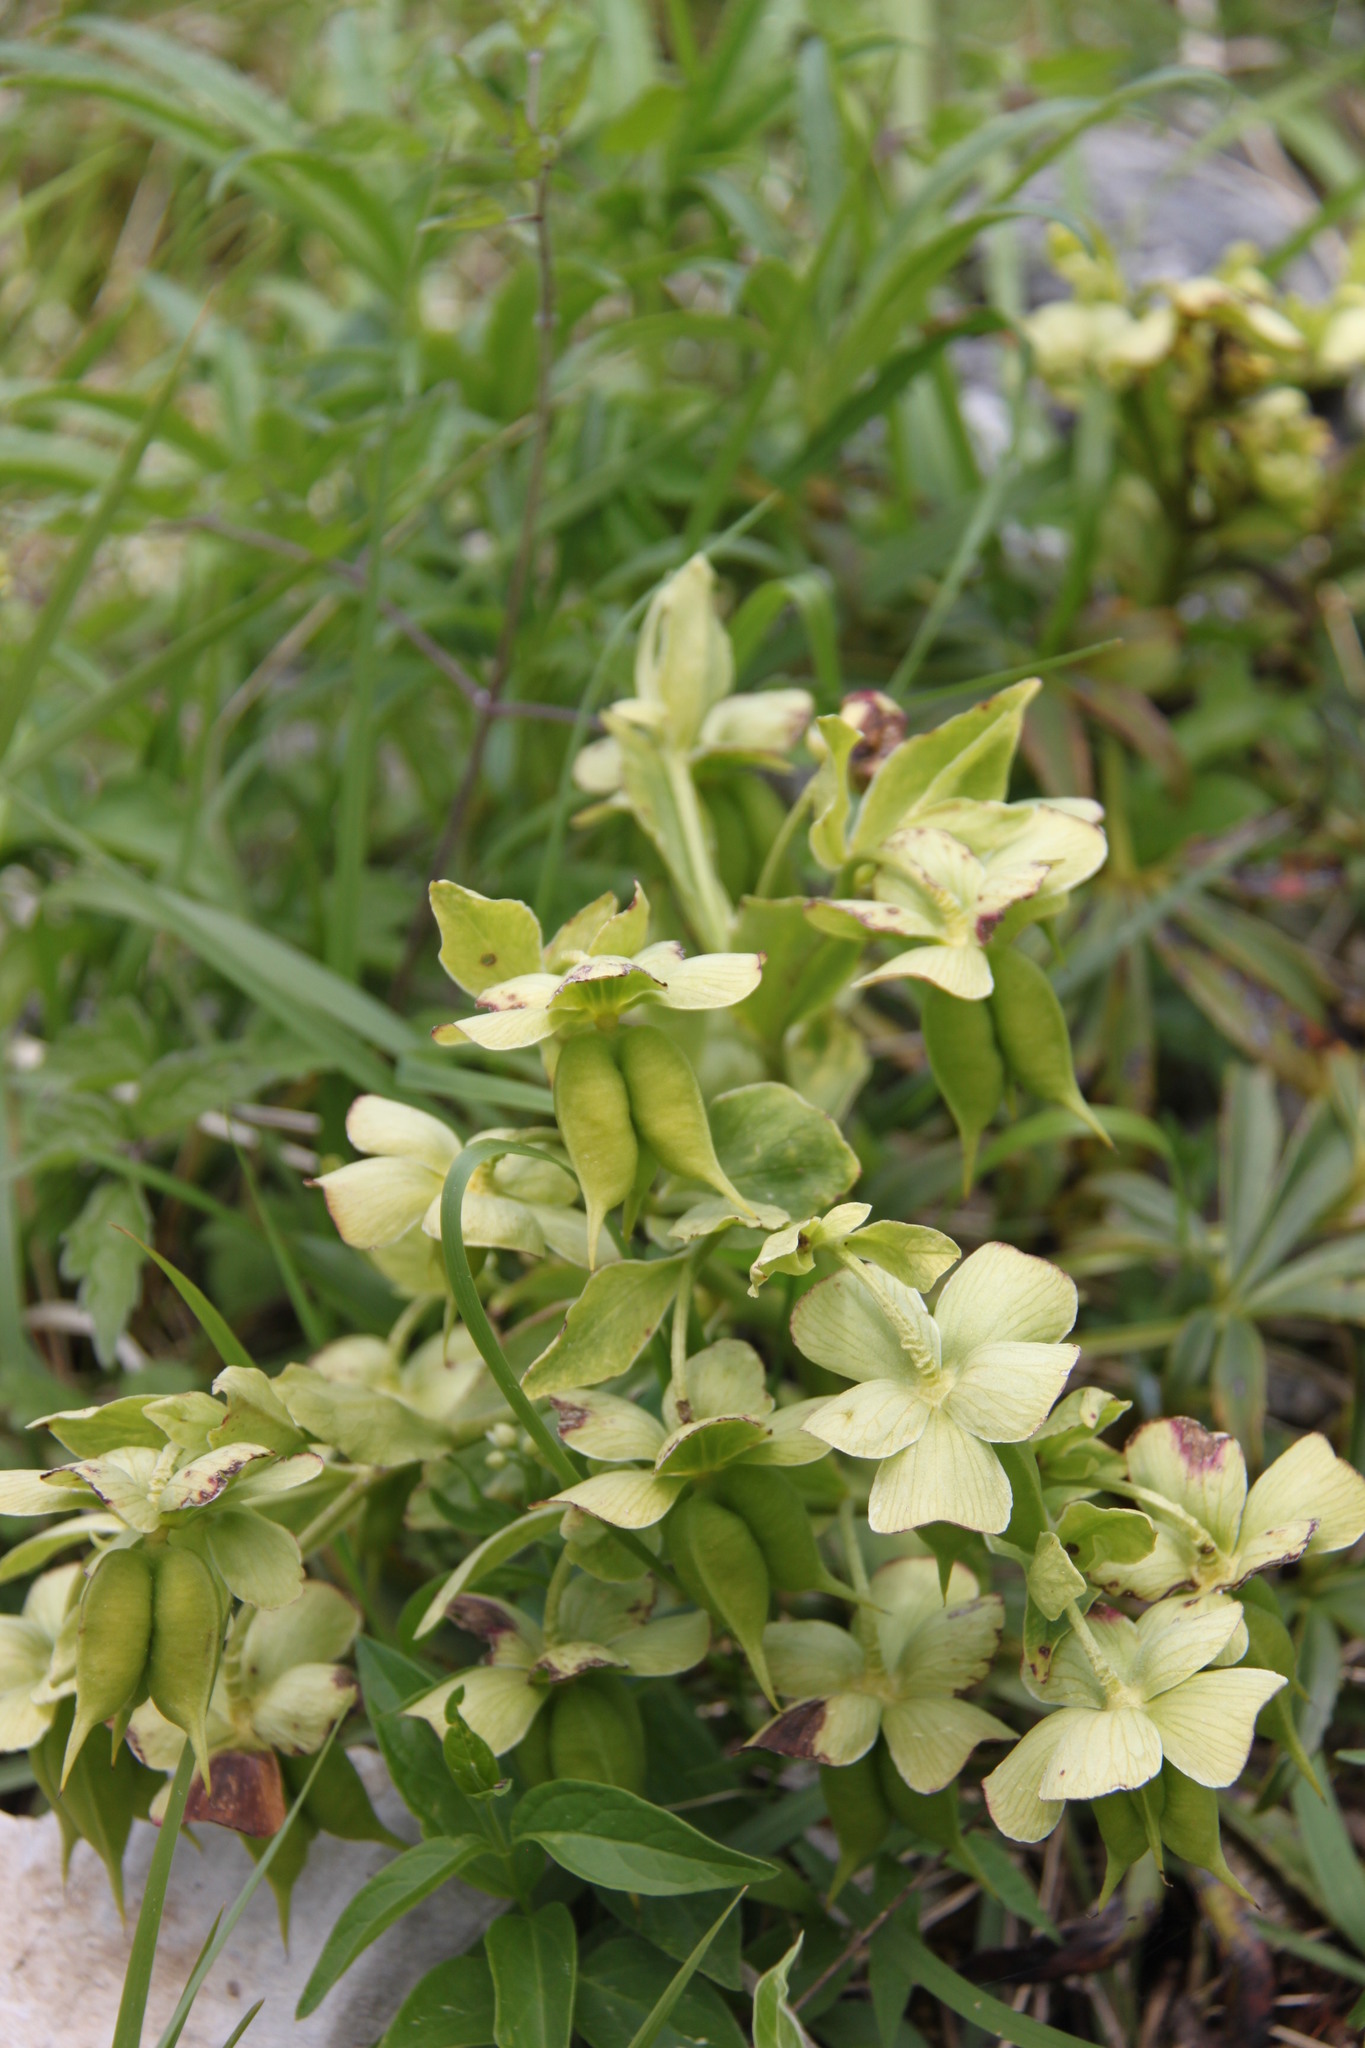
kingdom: Plantae
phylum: Tracheophyta
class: Magnoliopsida
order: Ranunculales
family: Ranunculaceae
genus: Helleborus
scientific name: Helleborus foetidus
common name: Stinking hellebore
